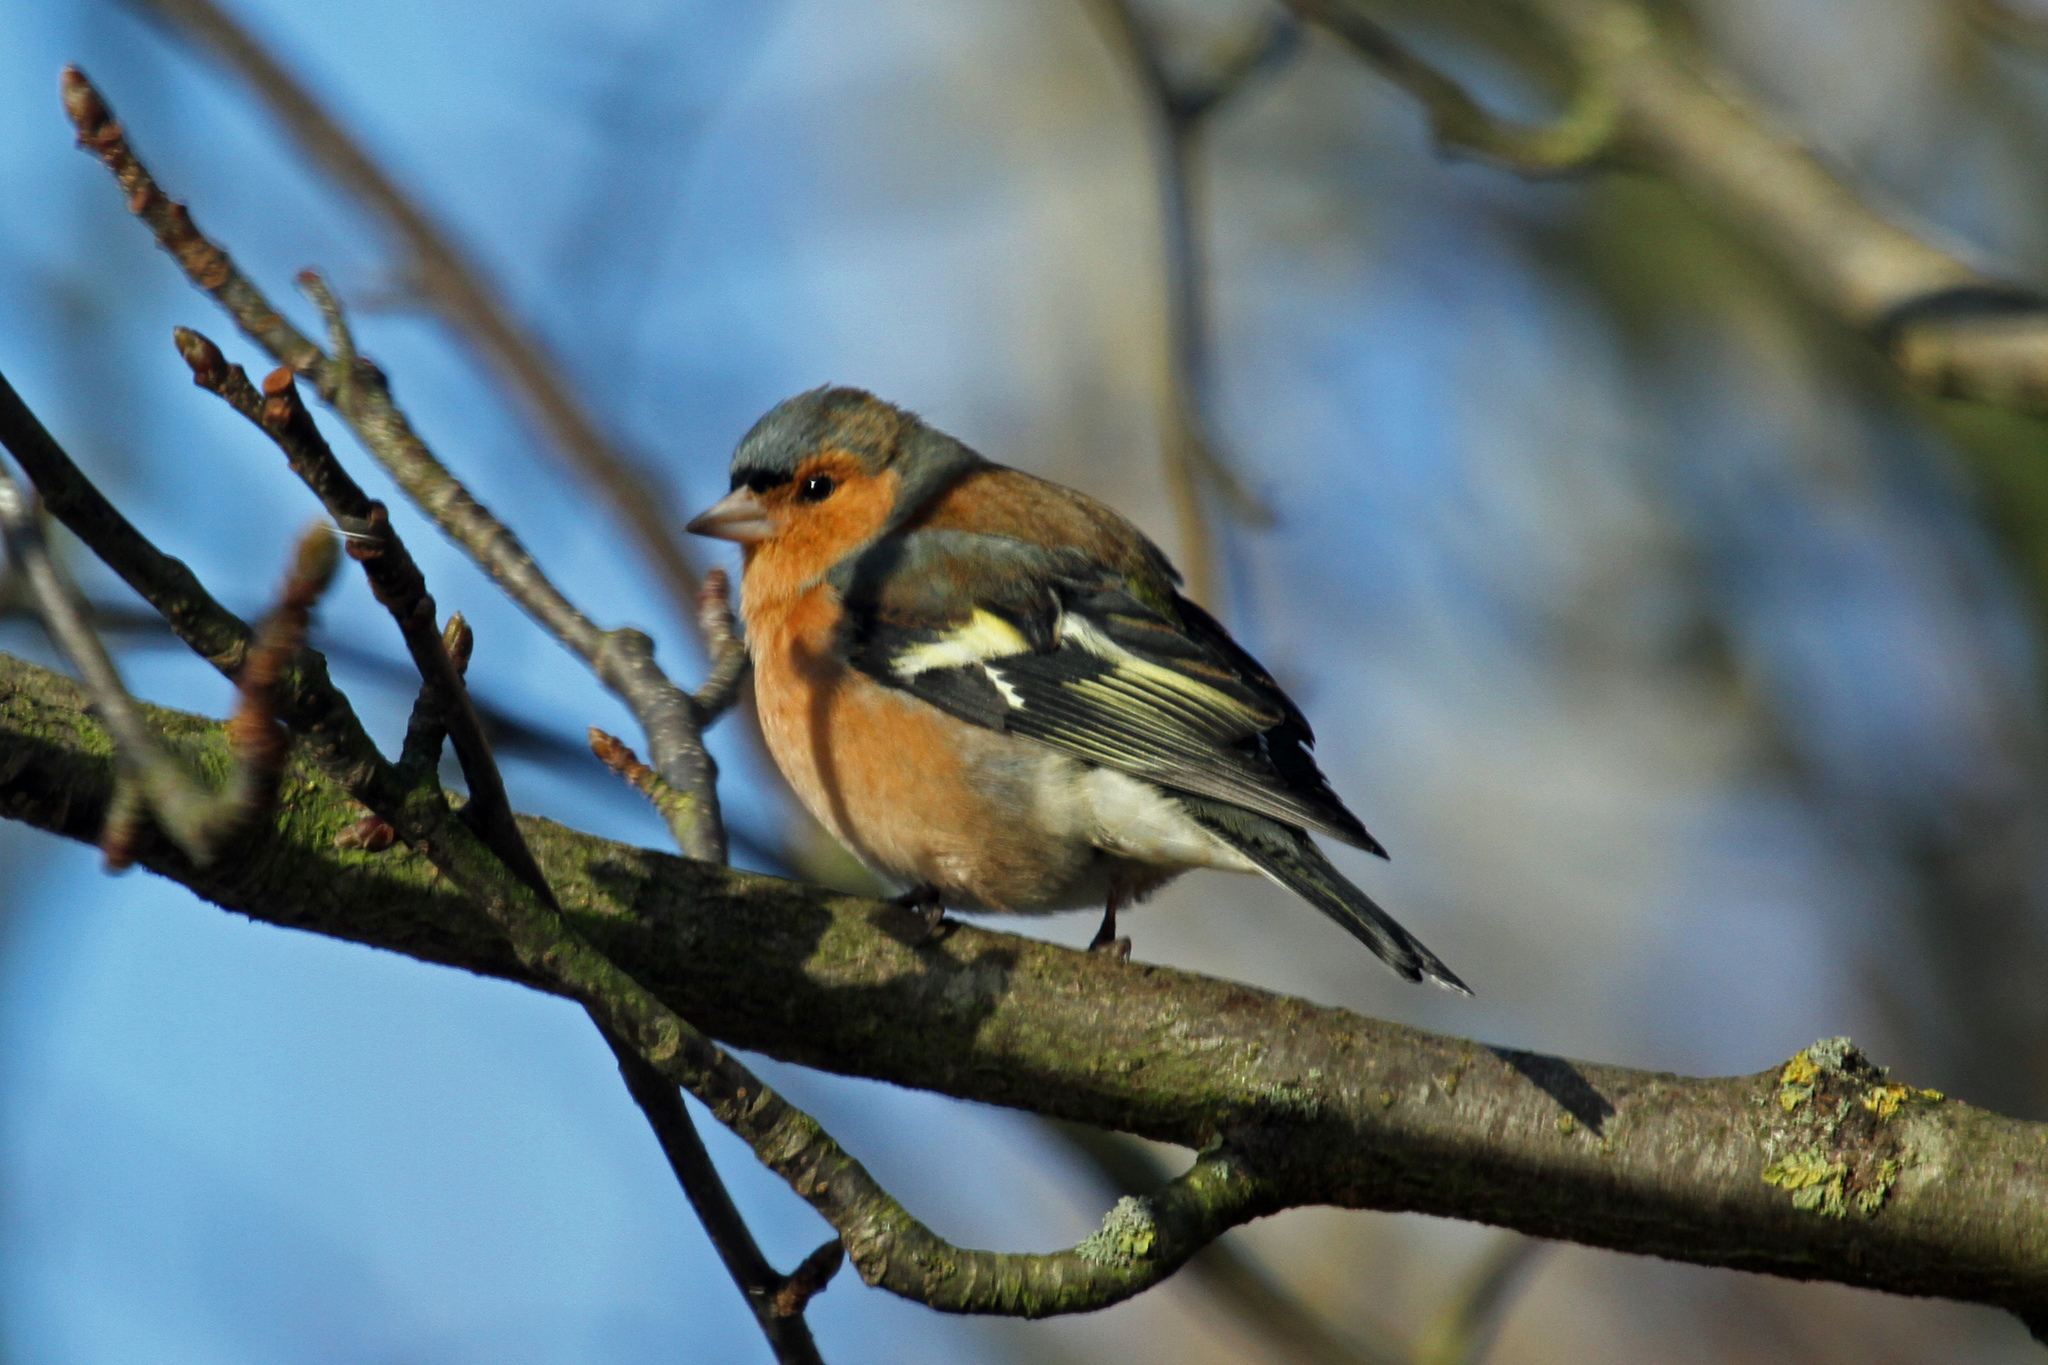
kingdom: Animalia
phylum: Chordata
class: Aves
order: Passeriformes
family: Fringillidae
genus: Fringilla
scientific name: Fringilla coelebs
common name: Common chaffinch
